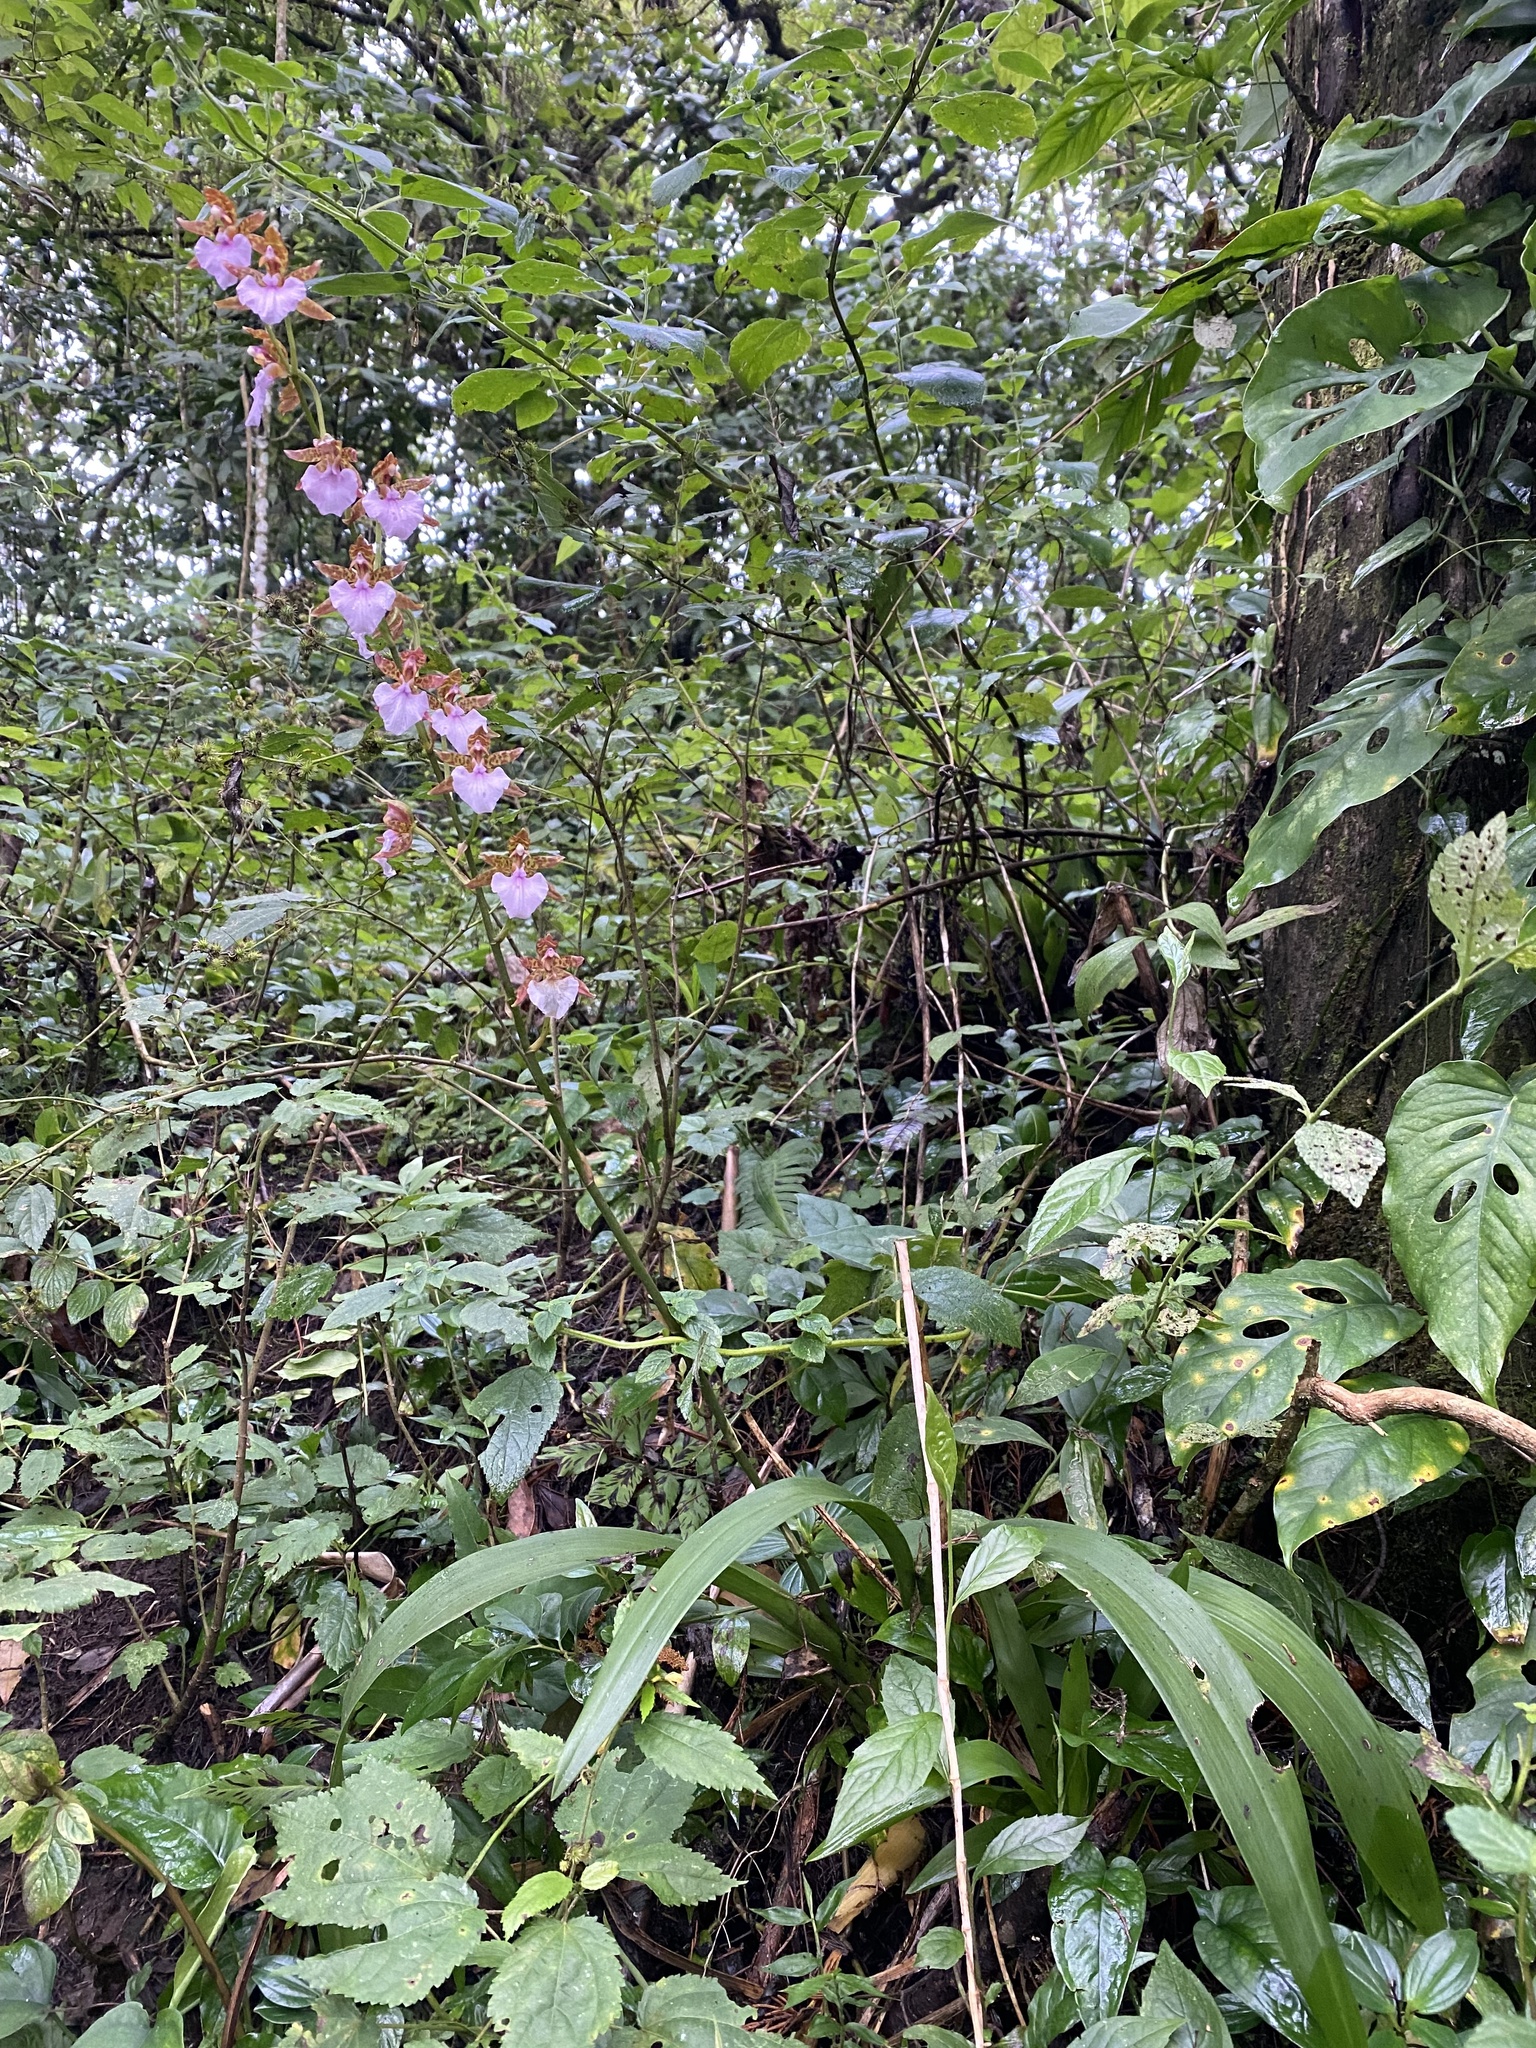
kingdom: Plantae
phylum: Tracheophyta
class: Liliopsida
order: Asparagales
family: Orchidaceae
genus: Rhynchostele
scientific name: Rhynchostele bictoniensis
